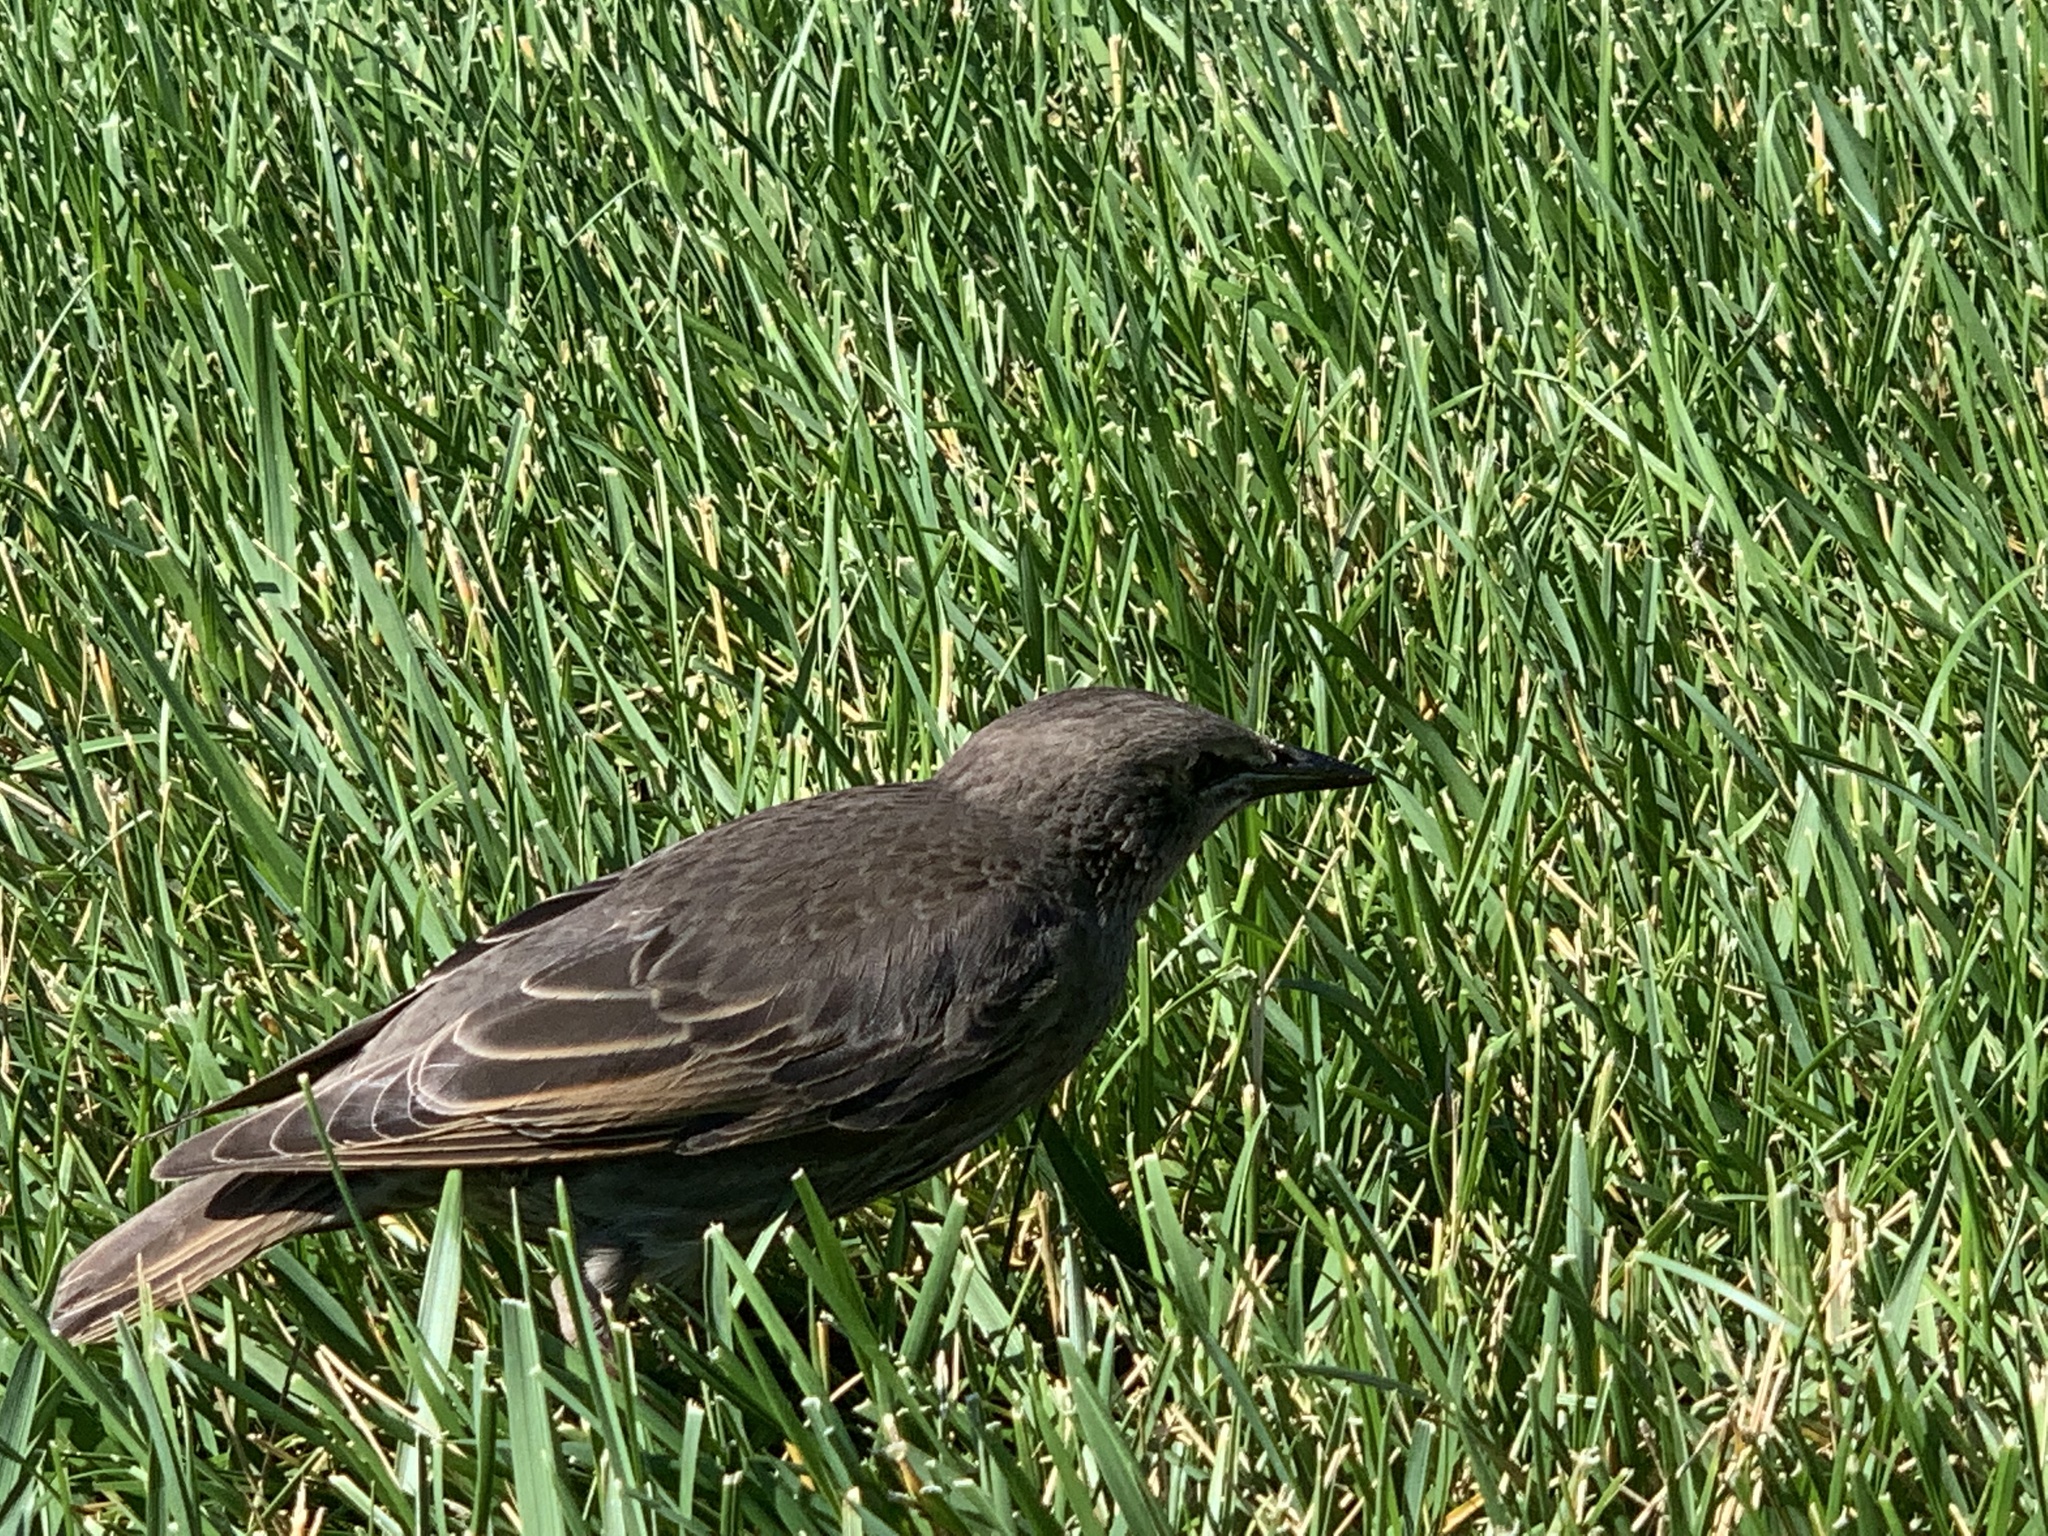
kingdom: Animalia
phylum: Chordata
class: Aves
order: Passeriformes
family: Sturnidae
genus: Sturnus
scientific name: Sturnus vulgaris
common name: Common starling
